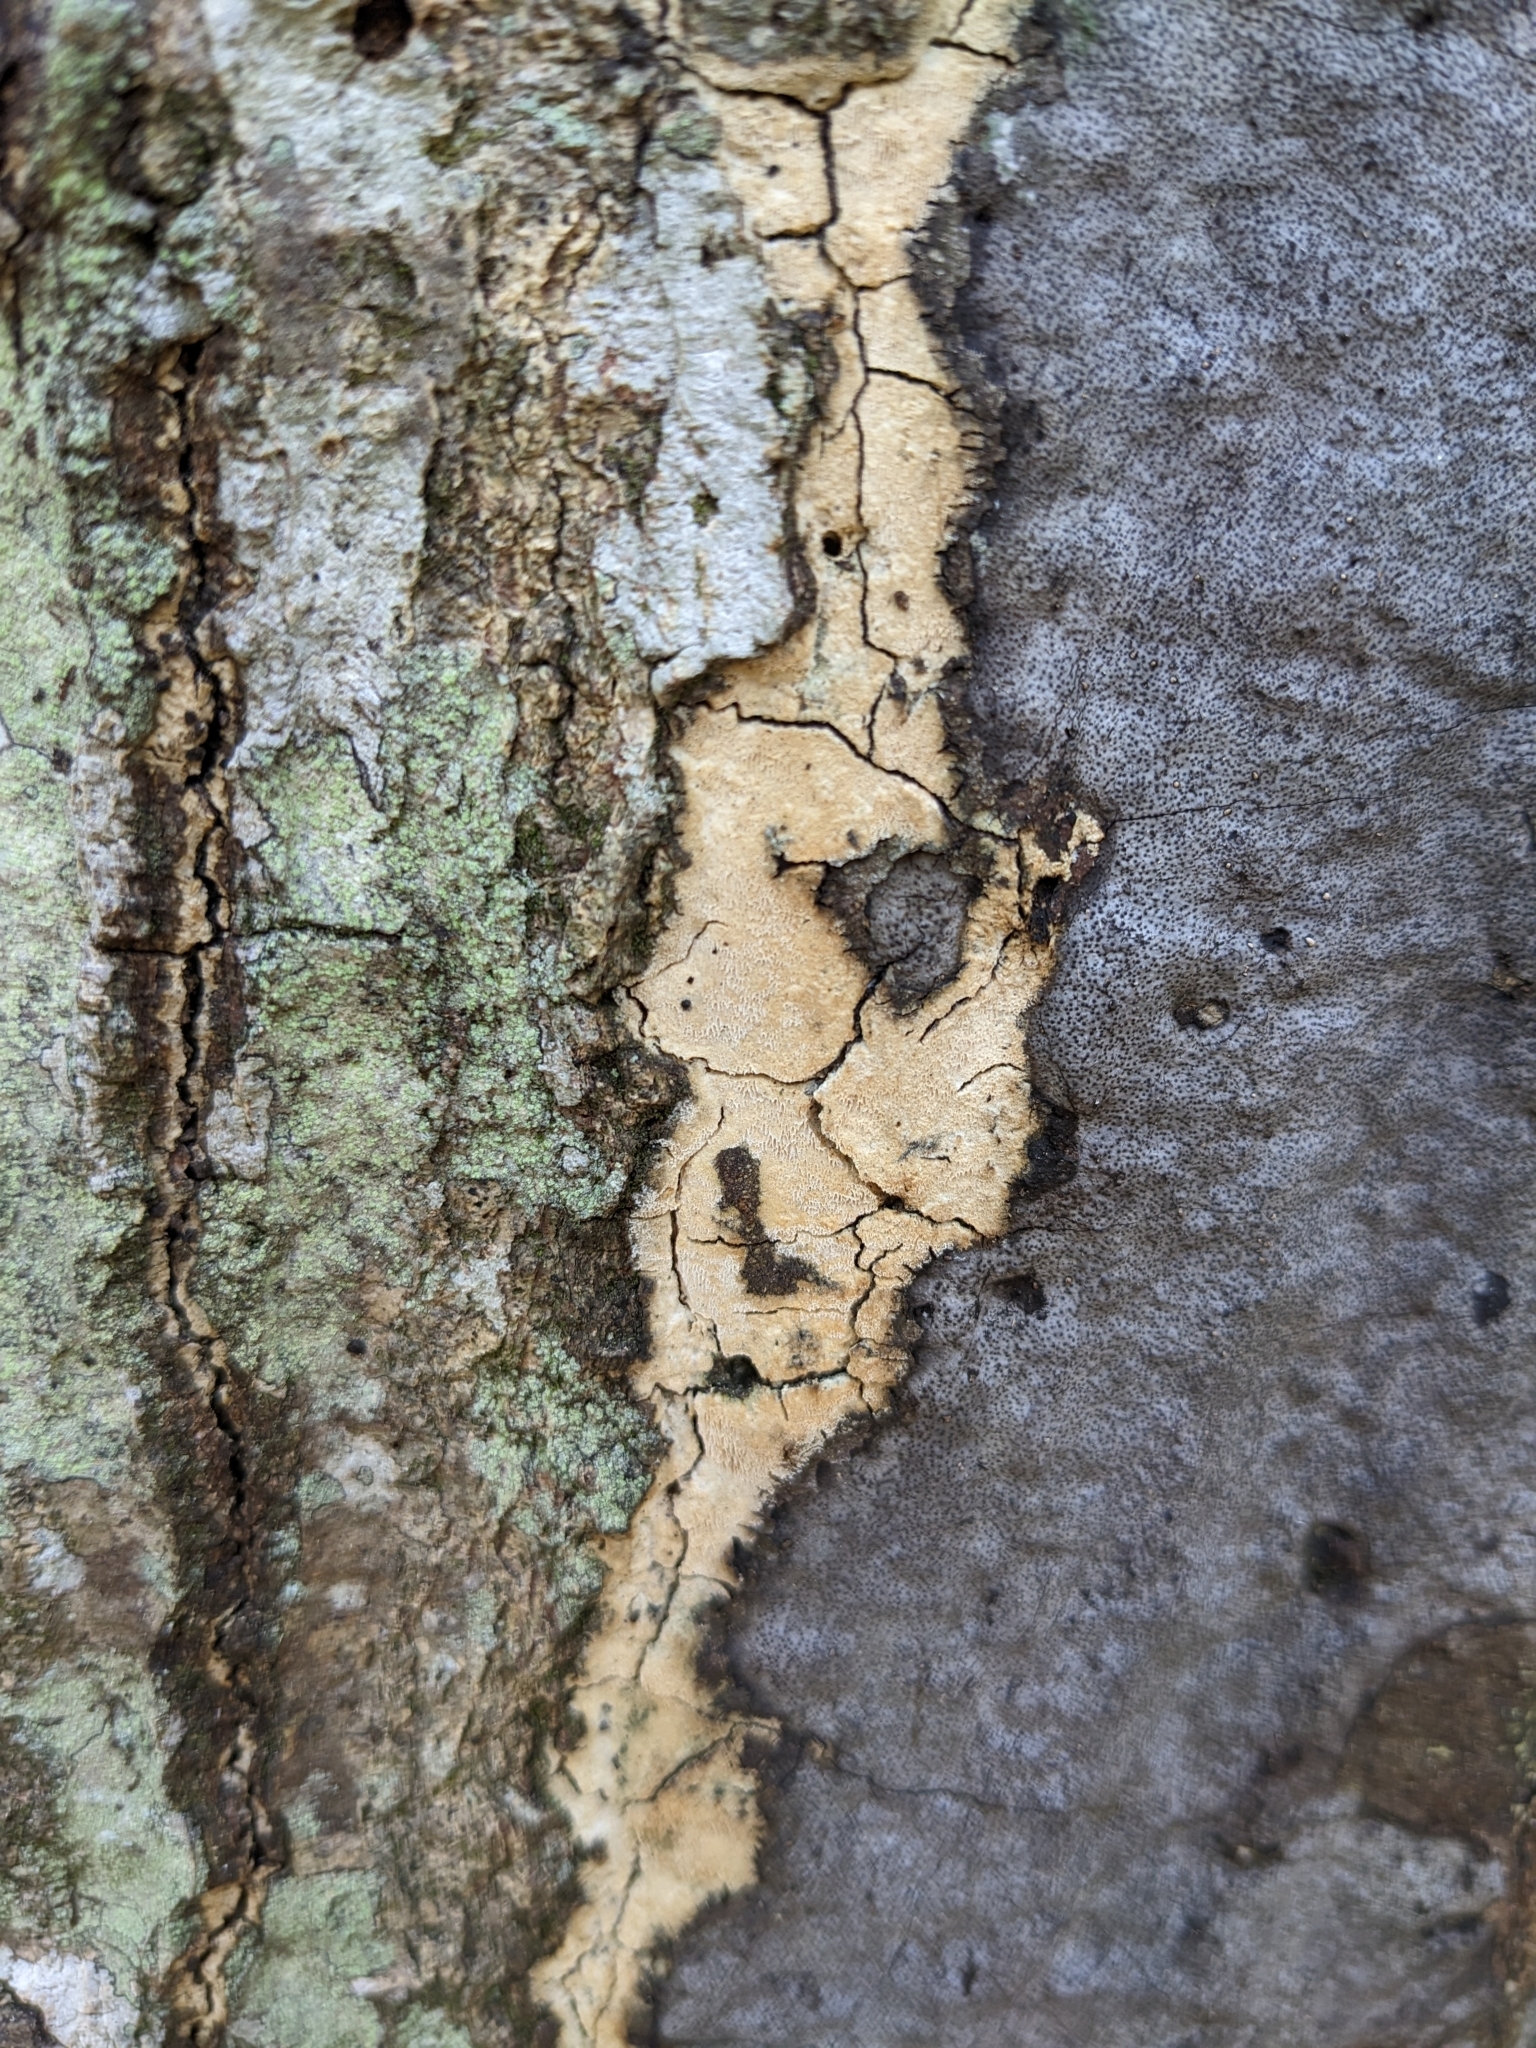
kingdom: Fungi
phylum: Ascomycota
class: Sordariomycetes
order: Xylariales
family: Graphostromataceae
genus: Biscogniauxia
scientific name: Biscogniauxia atropunctata
